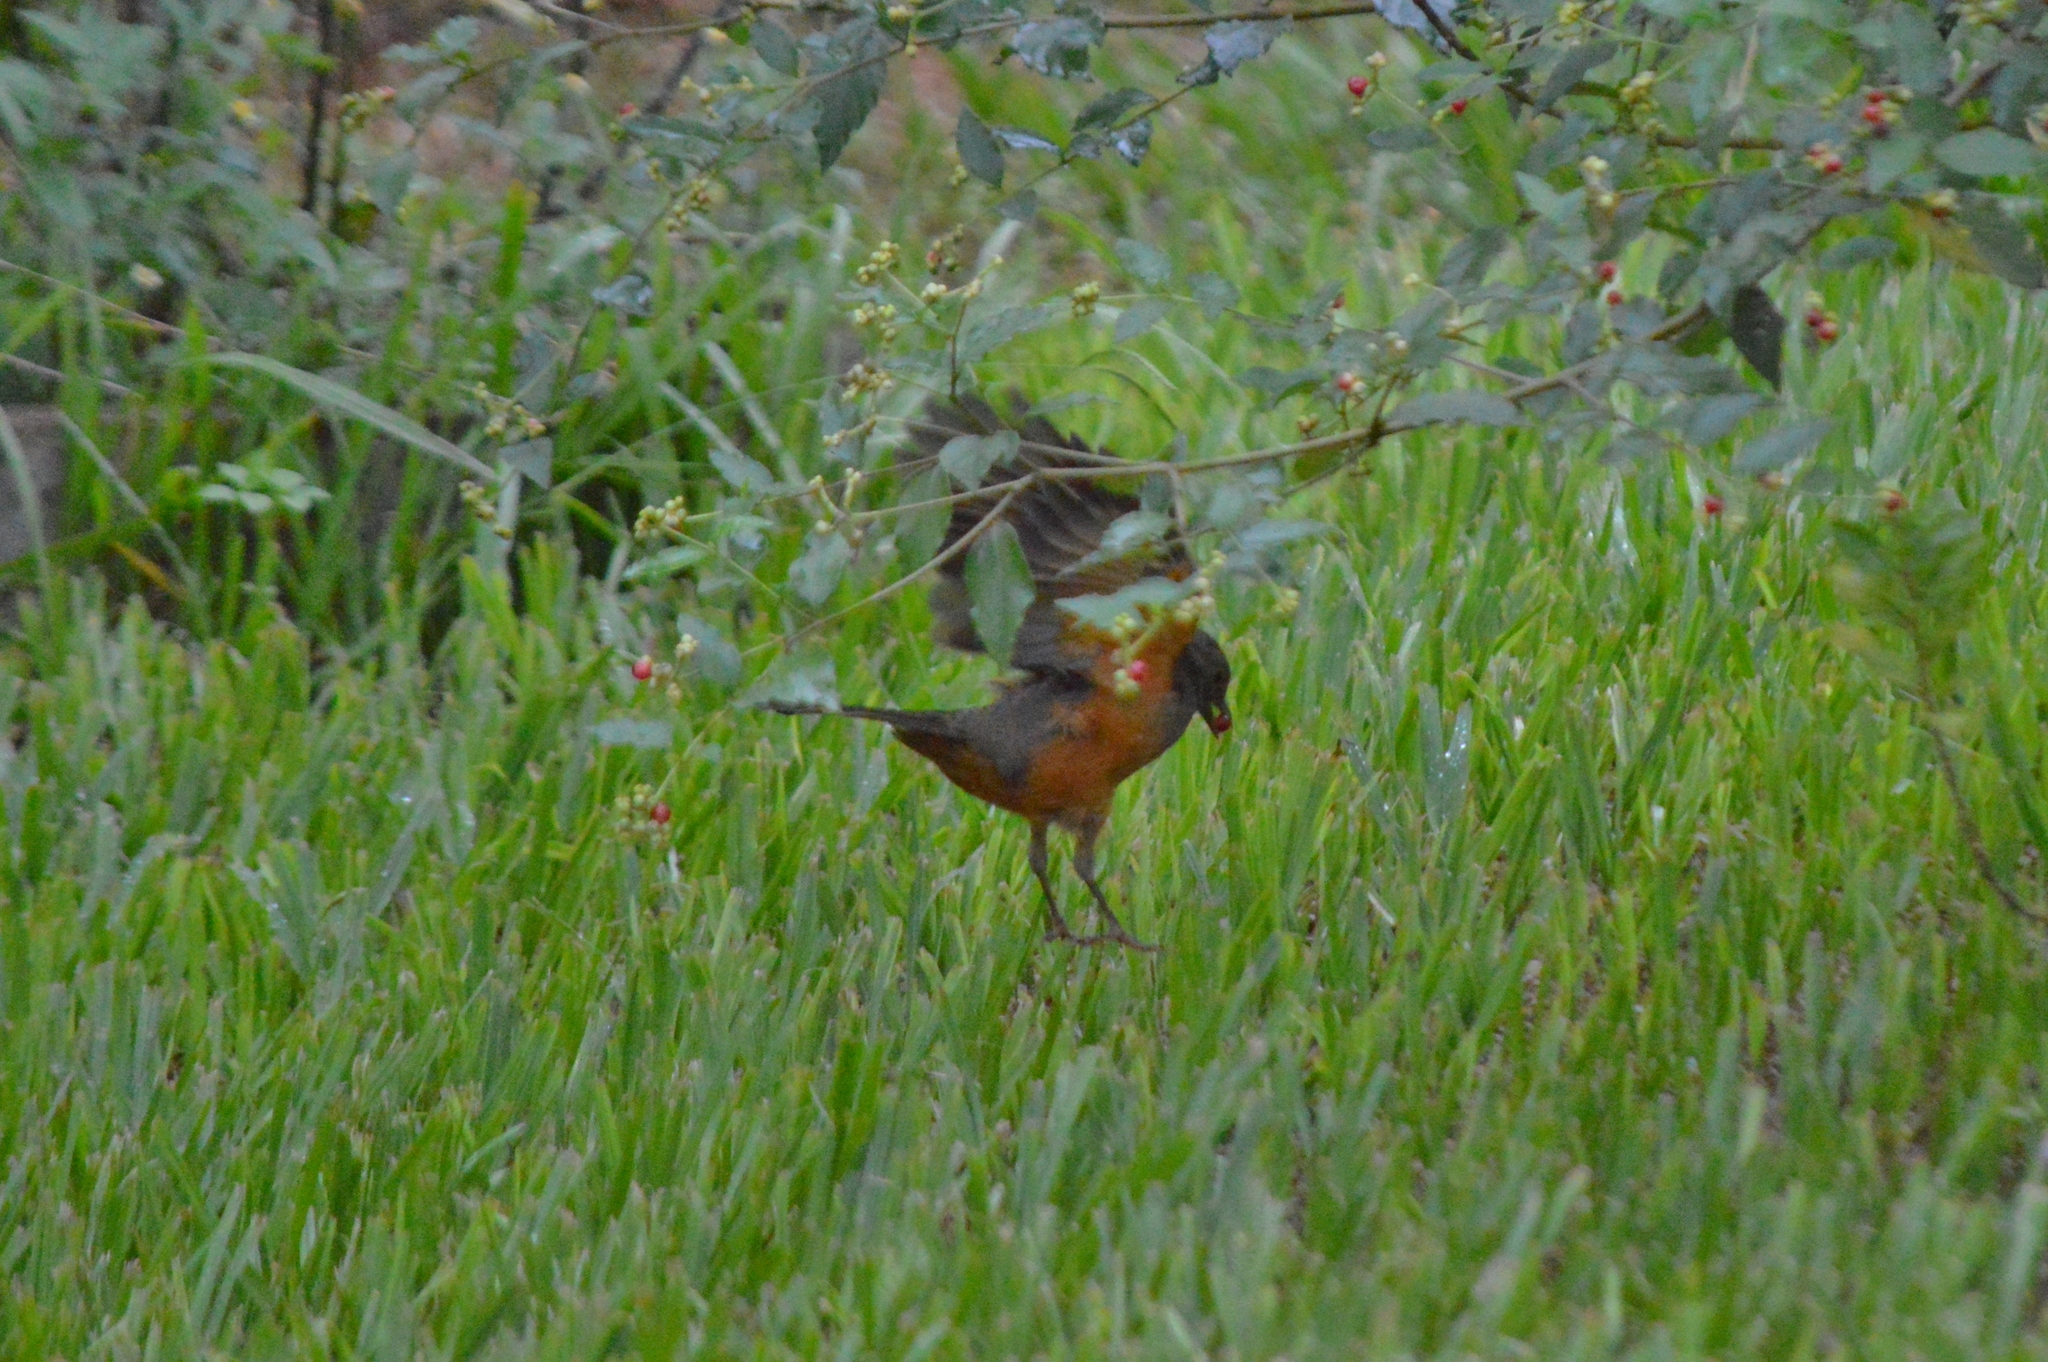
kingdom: Animalia
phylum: Chordata
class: Aves
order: Passeriformes
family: Turdidae
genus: Turdus
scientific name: Turdus rufiventris
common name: Rufous-bellied thrush
